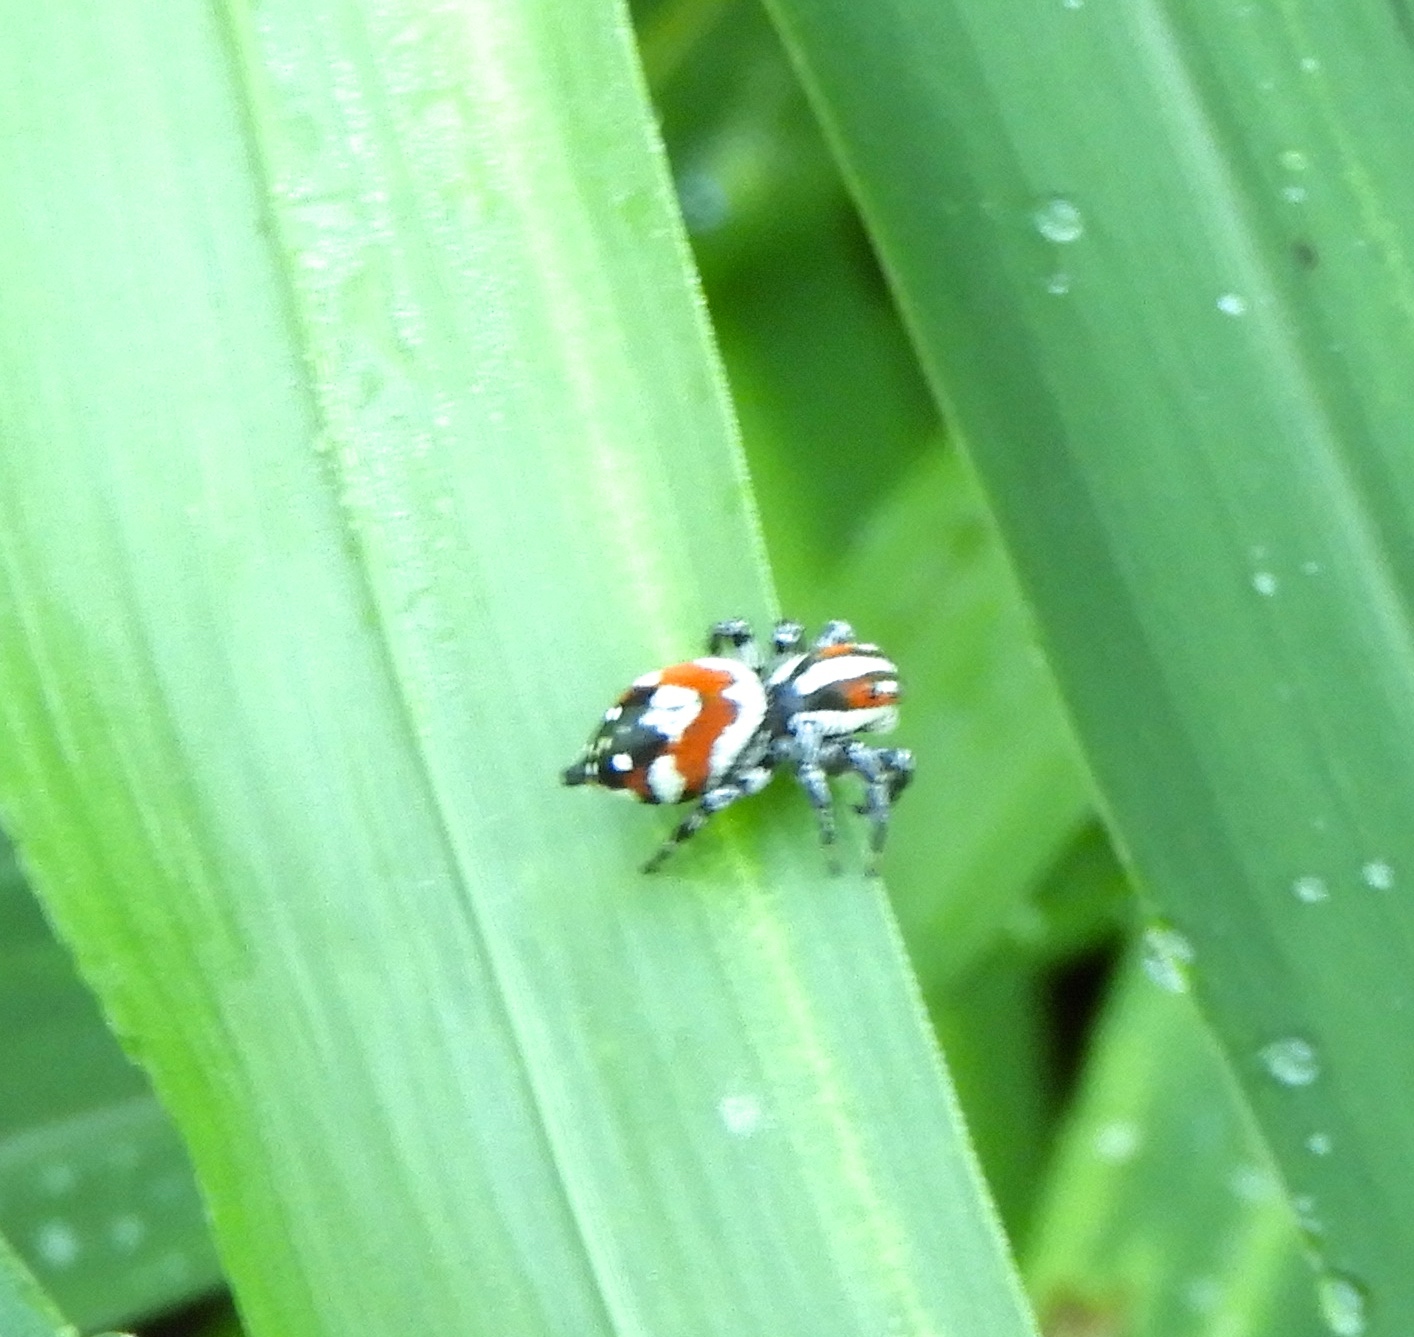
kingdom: Animalia
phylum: Arthropoda
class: Arachnida
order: Araneae
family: Salticidae
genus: Nycerella
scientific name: Nycerella delecta
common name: Jumping spiders
